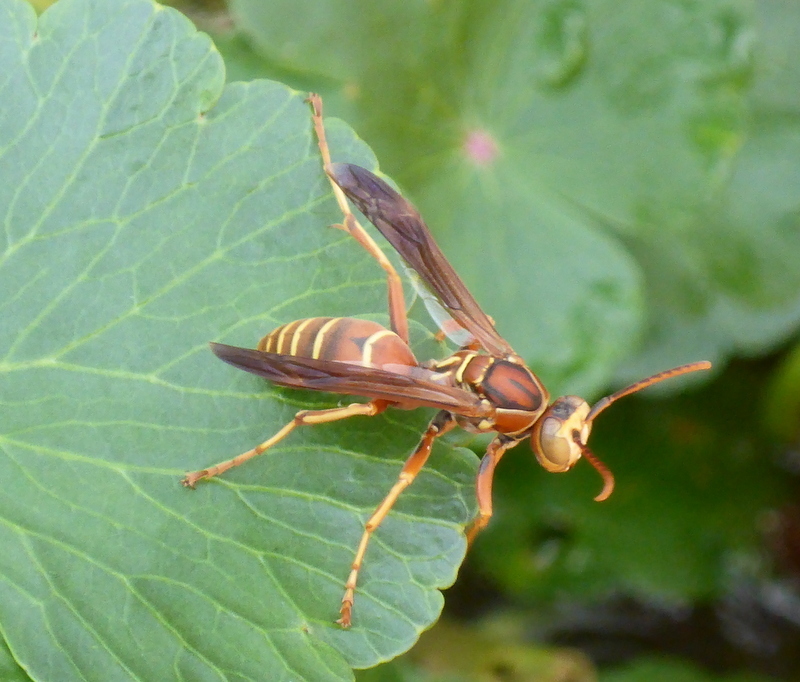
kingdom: Animalia
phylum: Arthropoda
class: Insecta
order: Hymenoptera
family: Vespidae
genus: Fuscopolistes
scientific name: Fuscopolistes
